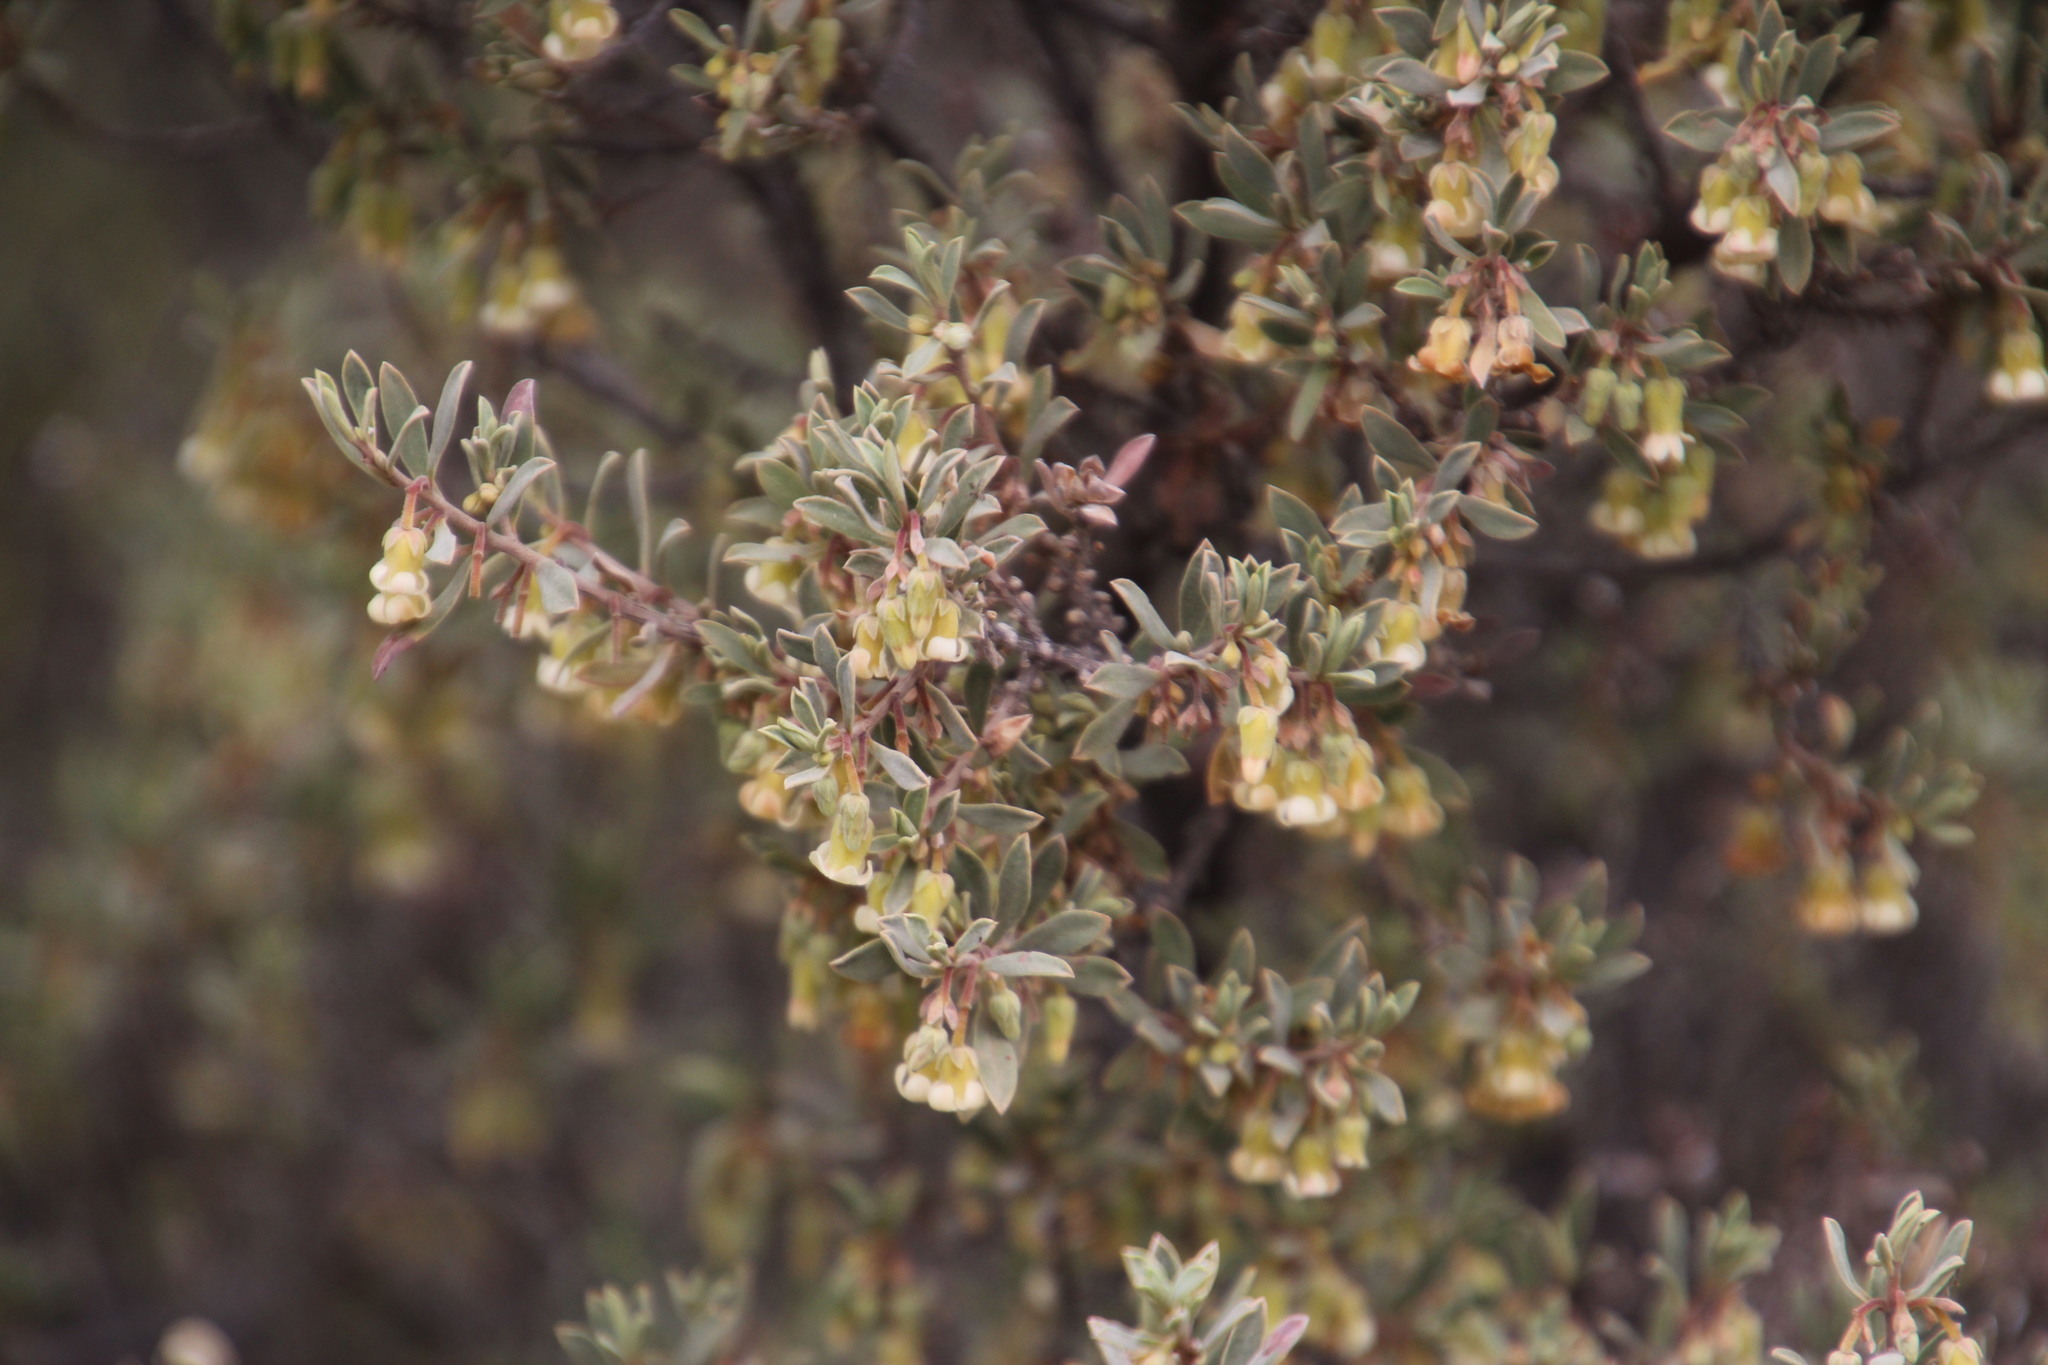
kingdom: Plantae
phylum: Tracheophyta
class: Magnoliopsida
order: Ericales
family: Ebenaceae
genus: Diospyros
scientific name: Diospyros pubescens
